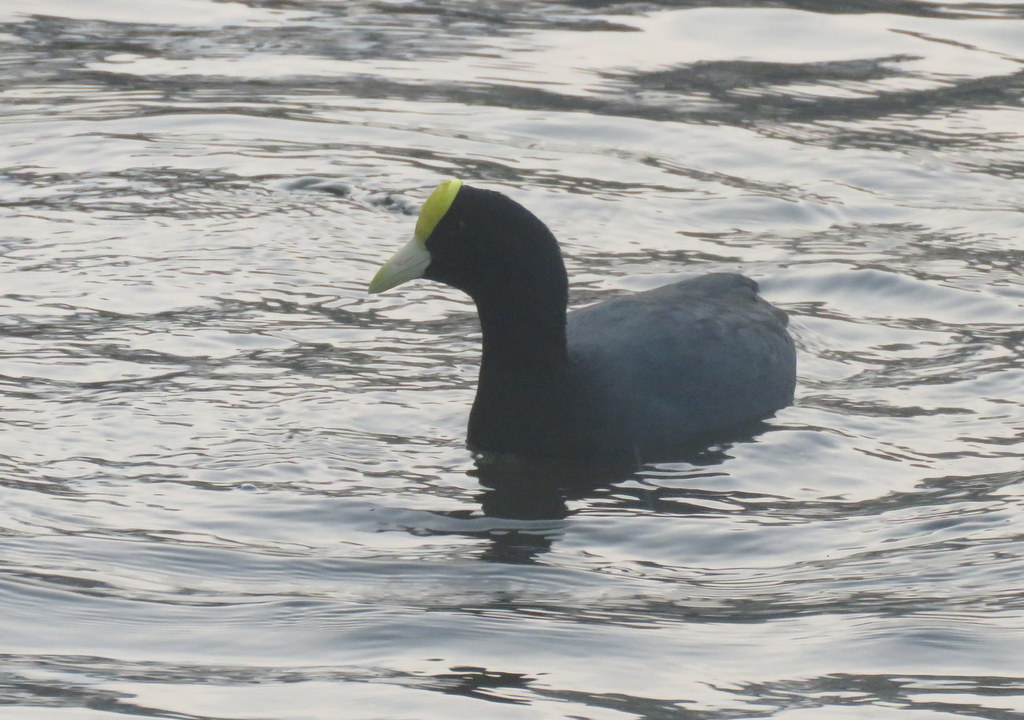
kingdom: Animalia
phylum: Chordata
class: Aves
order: Gruiformes
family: Rallidae
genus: Fulica
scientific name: Fulica leucoptera
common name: White-winged coot
